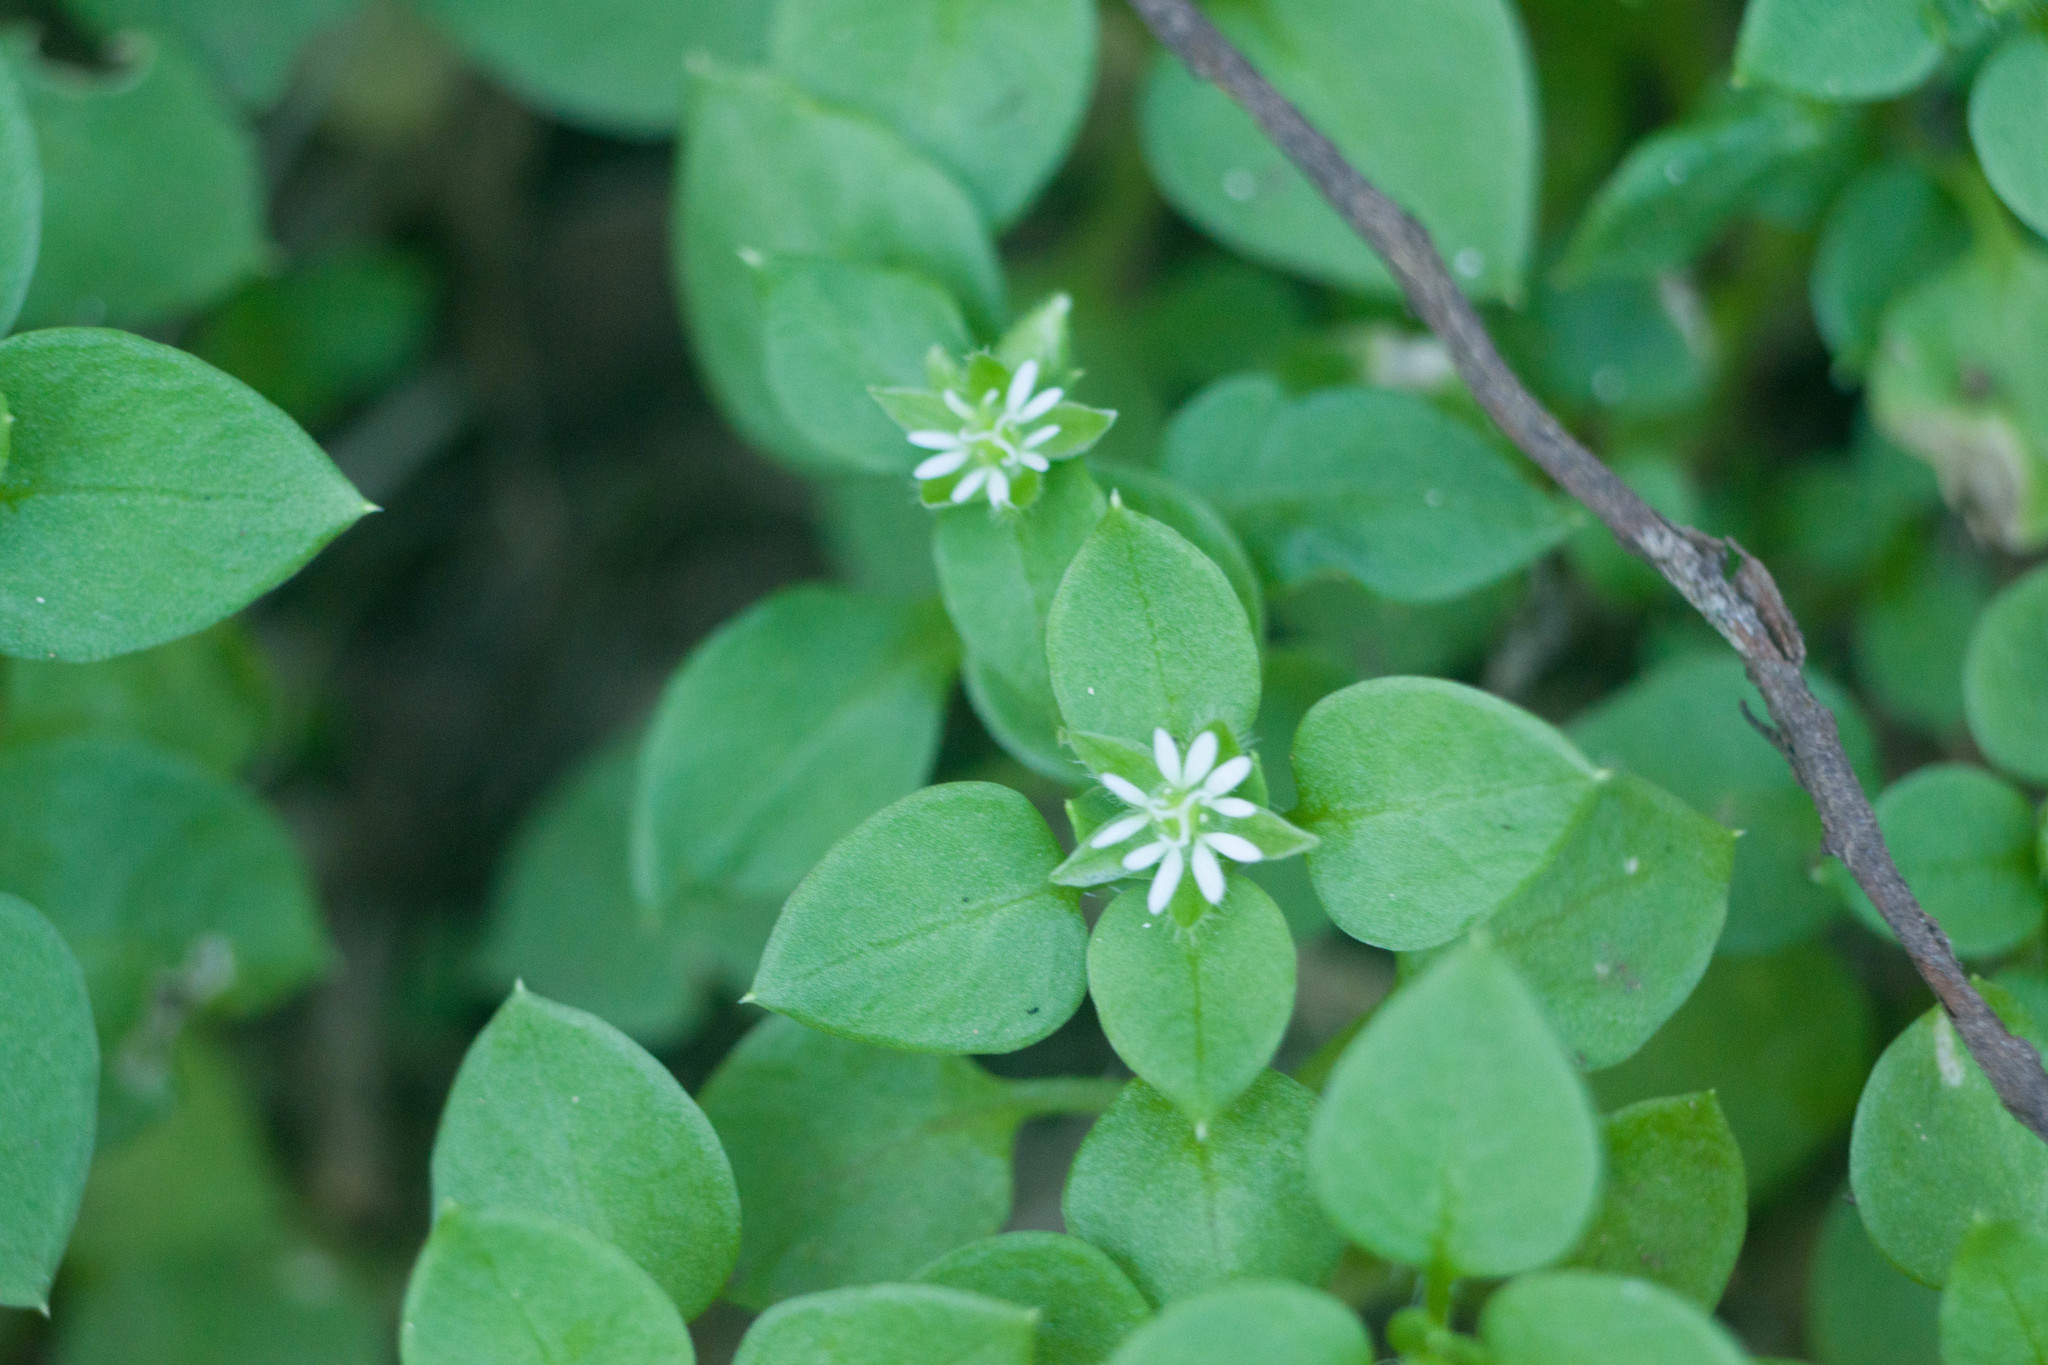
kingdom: Plantae
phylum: Tracheophyta
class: Magnoliopsida
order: Caryophyllales
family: Caryophyllaceae
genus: Stellaria
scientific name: Stellaria media
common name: Common chickweed
